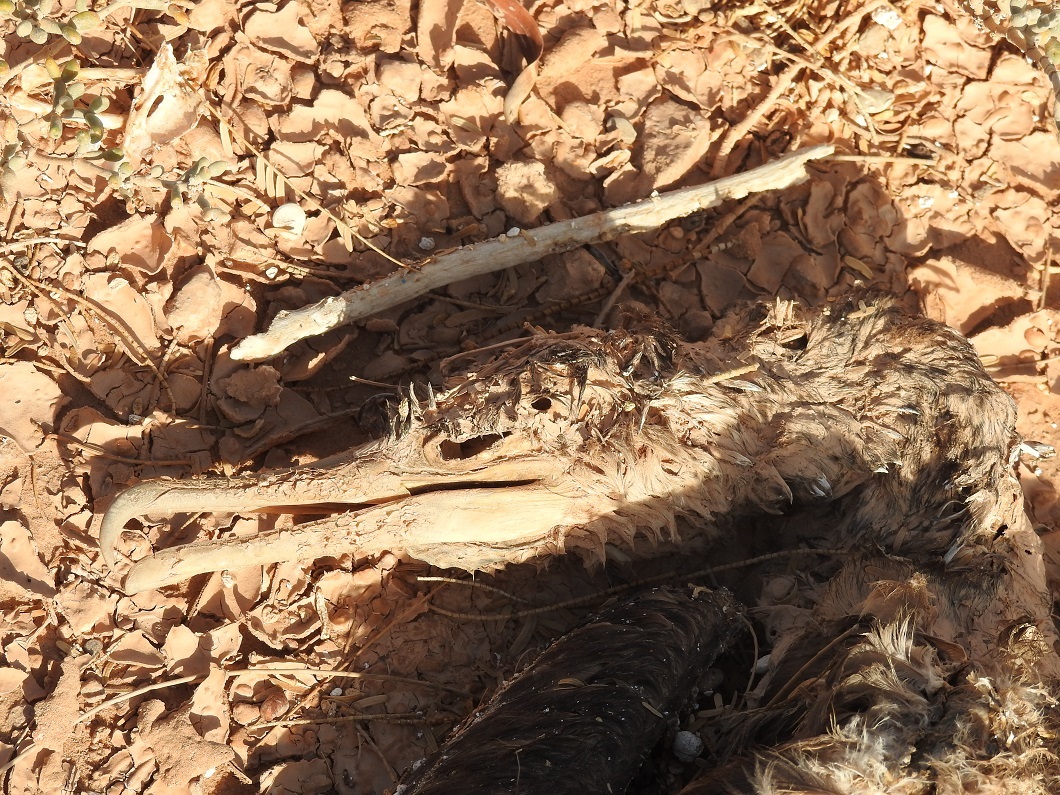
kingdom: Animalia
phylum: Chordata
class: Aves
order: Suliformes
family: Phalacrocoracidae
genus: Phalacrocorax
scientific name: Phalacrocorax carbo
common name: Great cormorant
